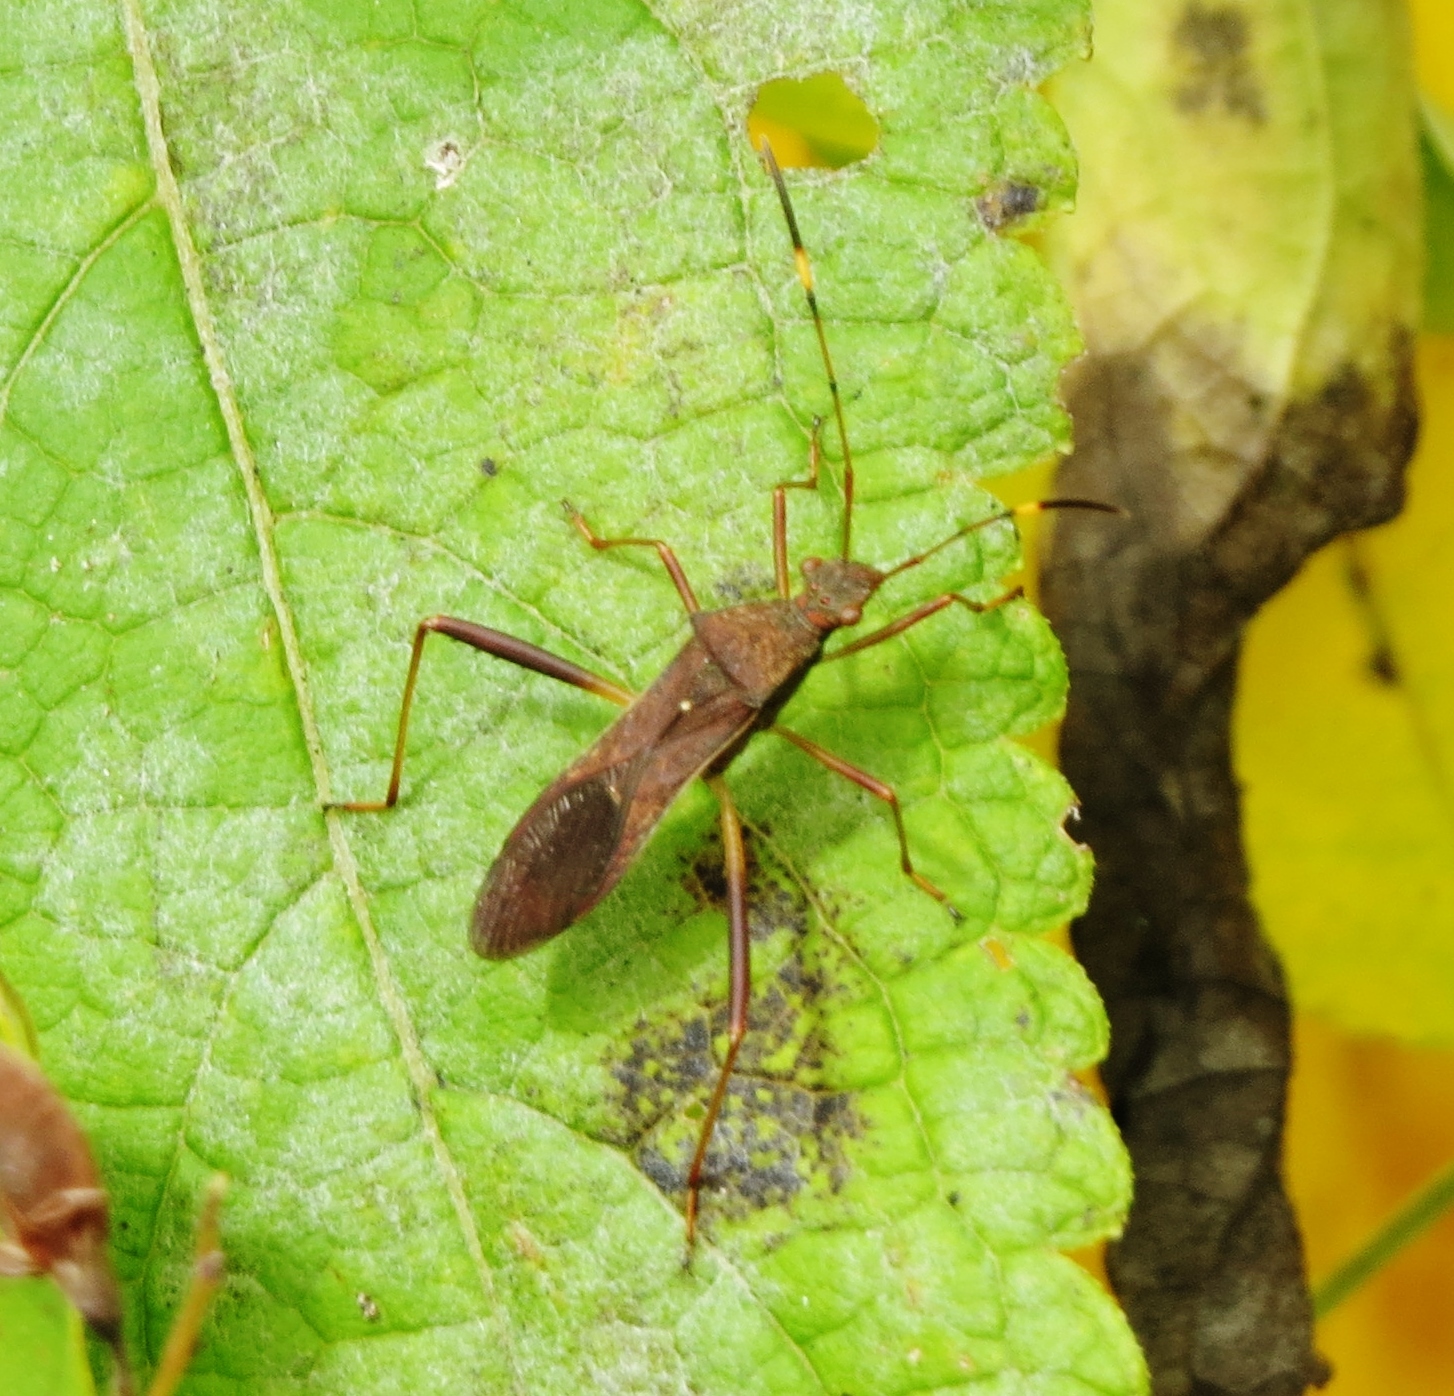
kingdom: Animalia
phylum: Arthropoda
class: Insecta
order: Hemiptera
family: Alydidae
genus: Megalotomus
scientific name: Megalotomus quinquespinosus
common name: Lupine bug
